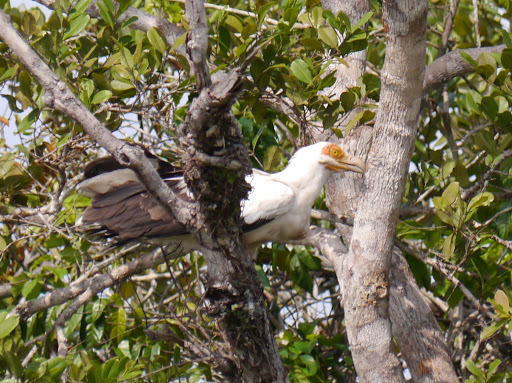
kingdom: Animalia
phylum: Chordata
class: Aves
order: Accipitriformes
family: Accipitridae
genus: Gypohierax
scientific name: Gypohierax angolensis
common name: Palm-nut vulture
